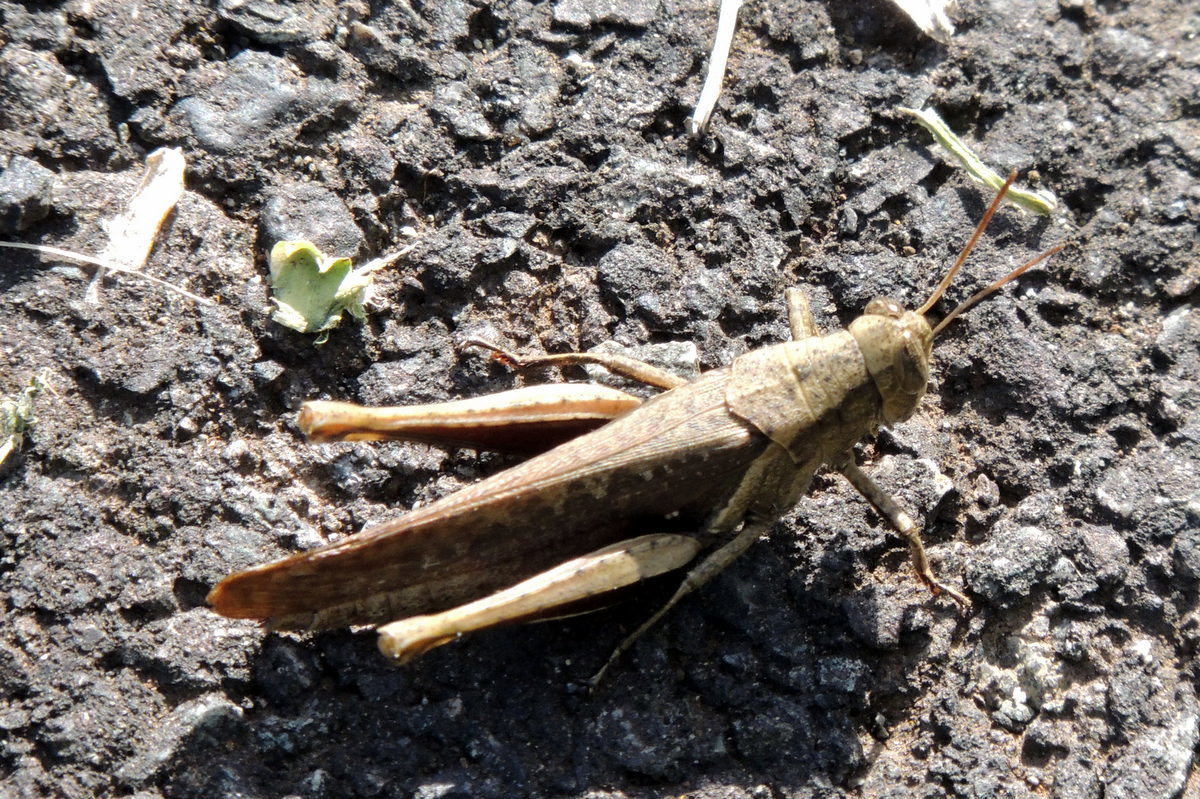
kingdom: Animalia
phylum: Arthropoda
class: Insecta
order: Orthoptera
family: Acrididae
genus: Abracris
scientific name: Abracris flavolineata
